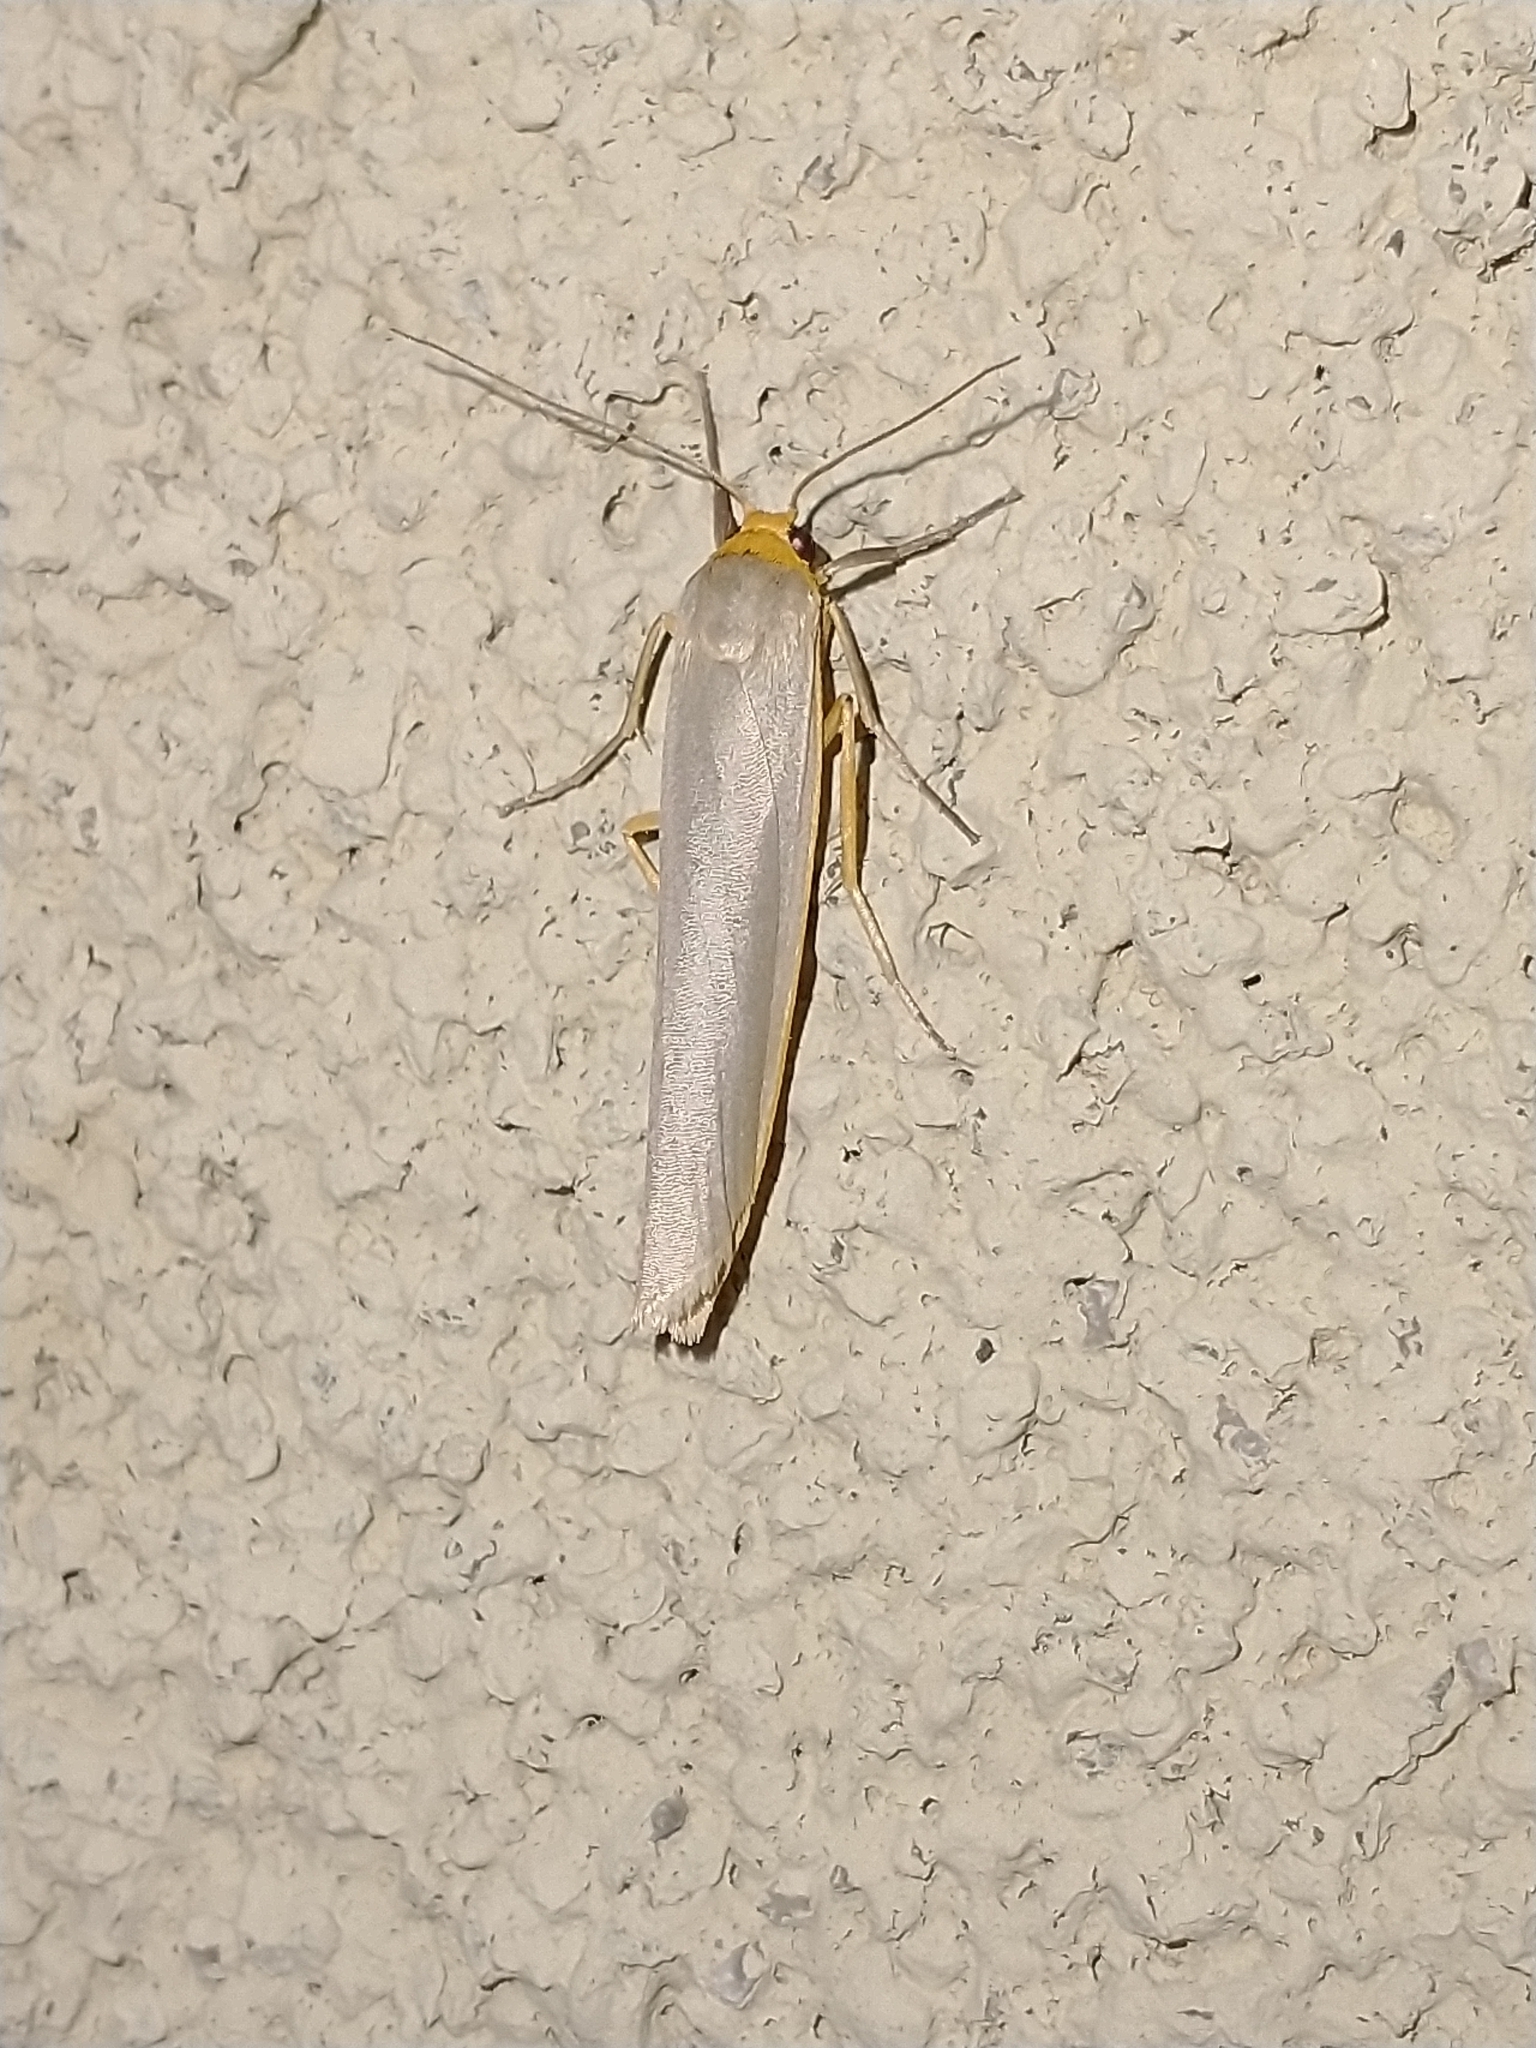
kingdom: Animalia
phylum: Arthropoda
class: Insecta
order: Lepidoptera
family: Erebidae
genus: Eilema
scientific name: Eilema caniola
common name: Hoary footman
